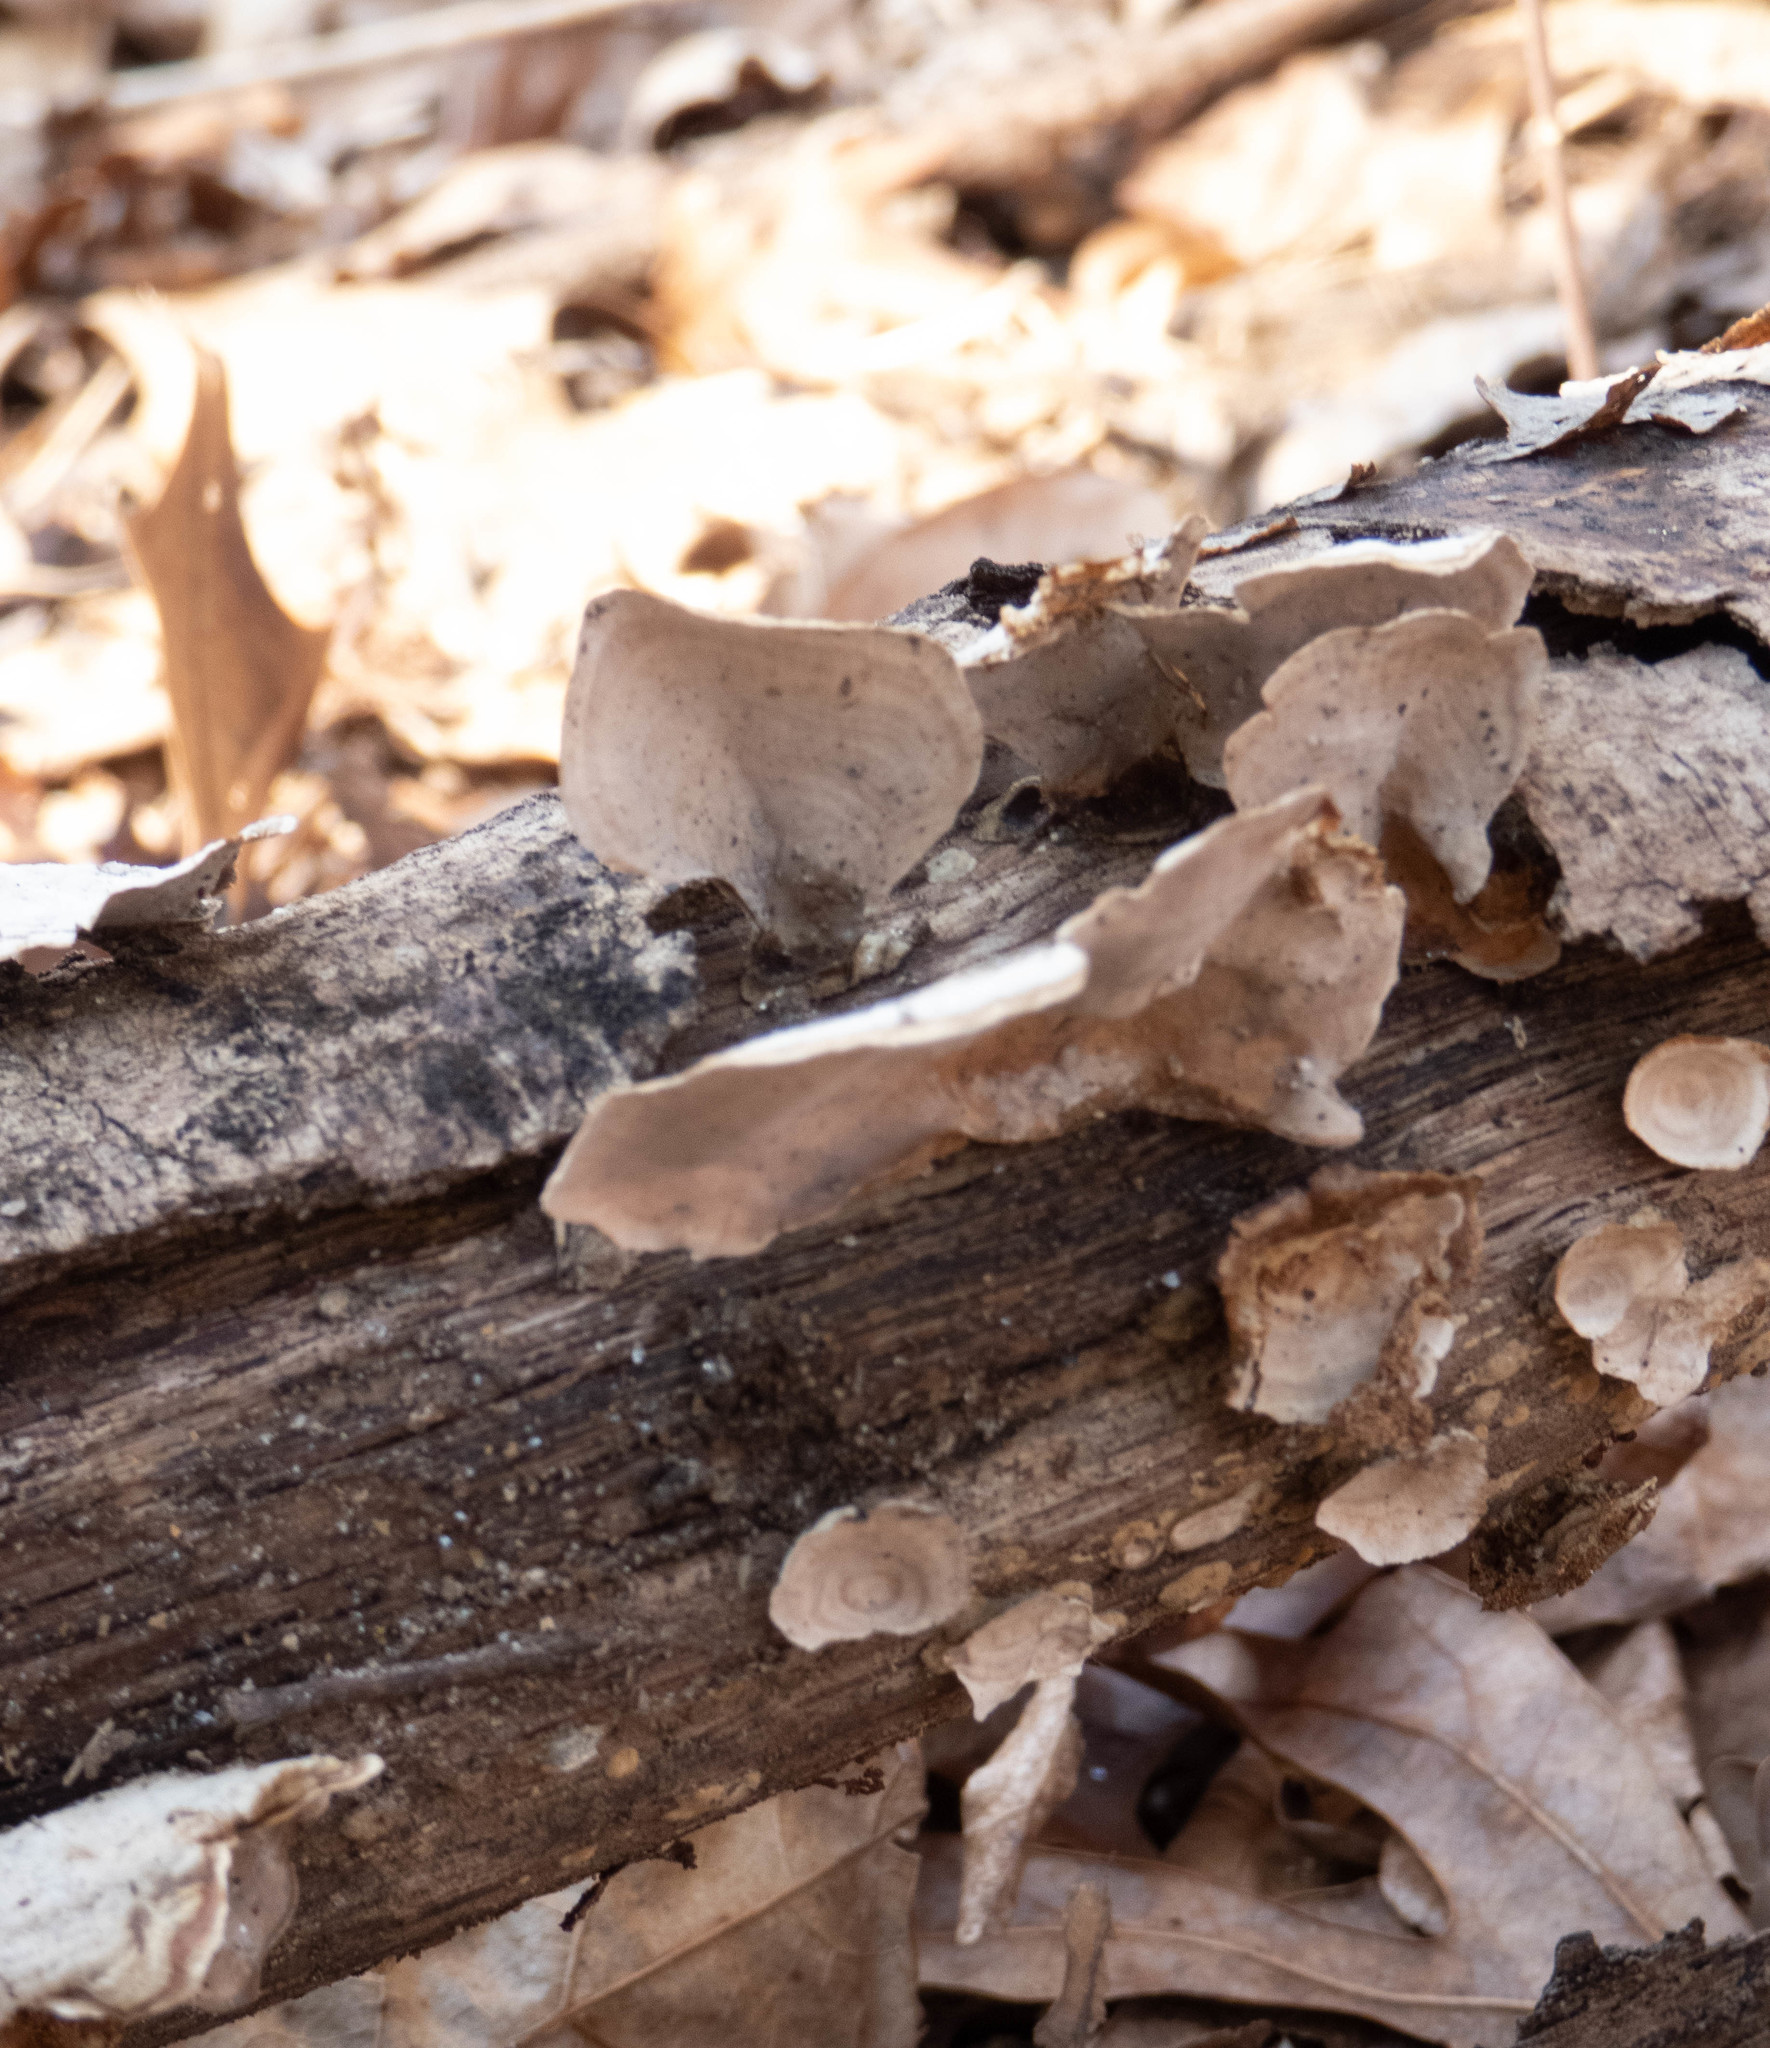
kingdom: Fungi
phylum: Basidiomycota
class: Agaricomycetes
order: Russulales
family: Stereaceae
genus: Stereum
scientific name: Stereum ostrea
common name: False turkeytail
